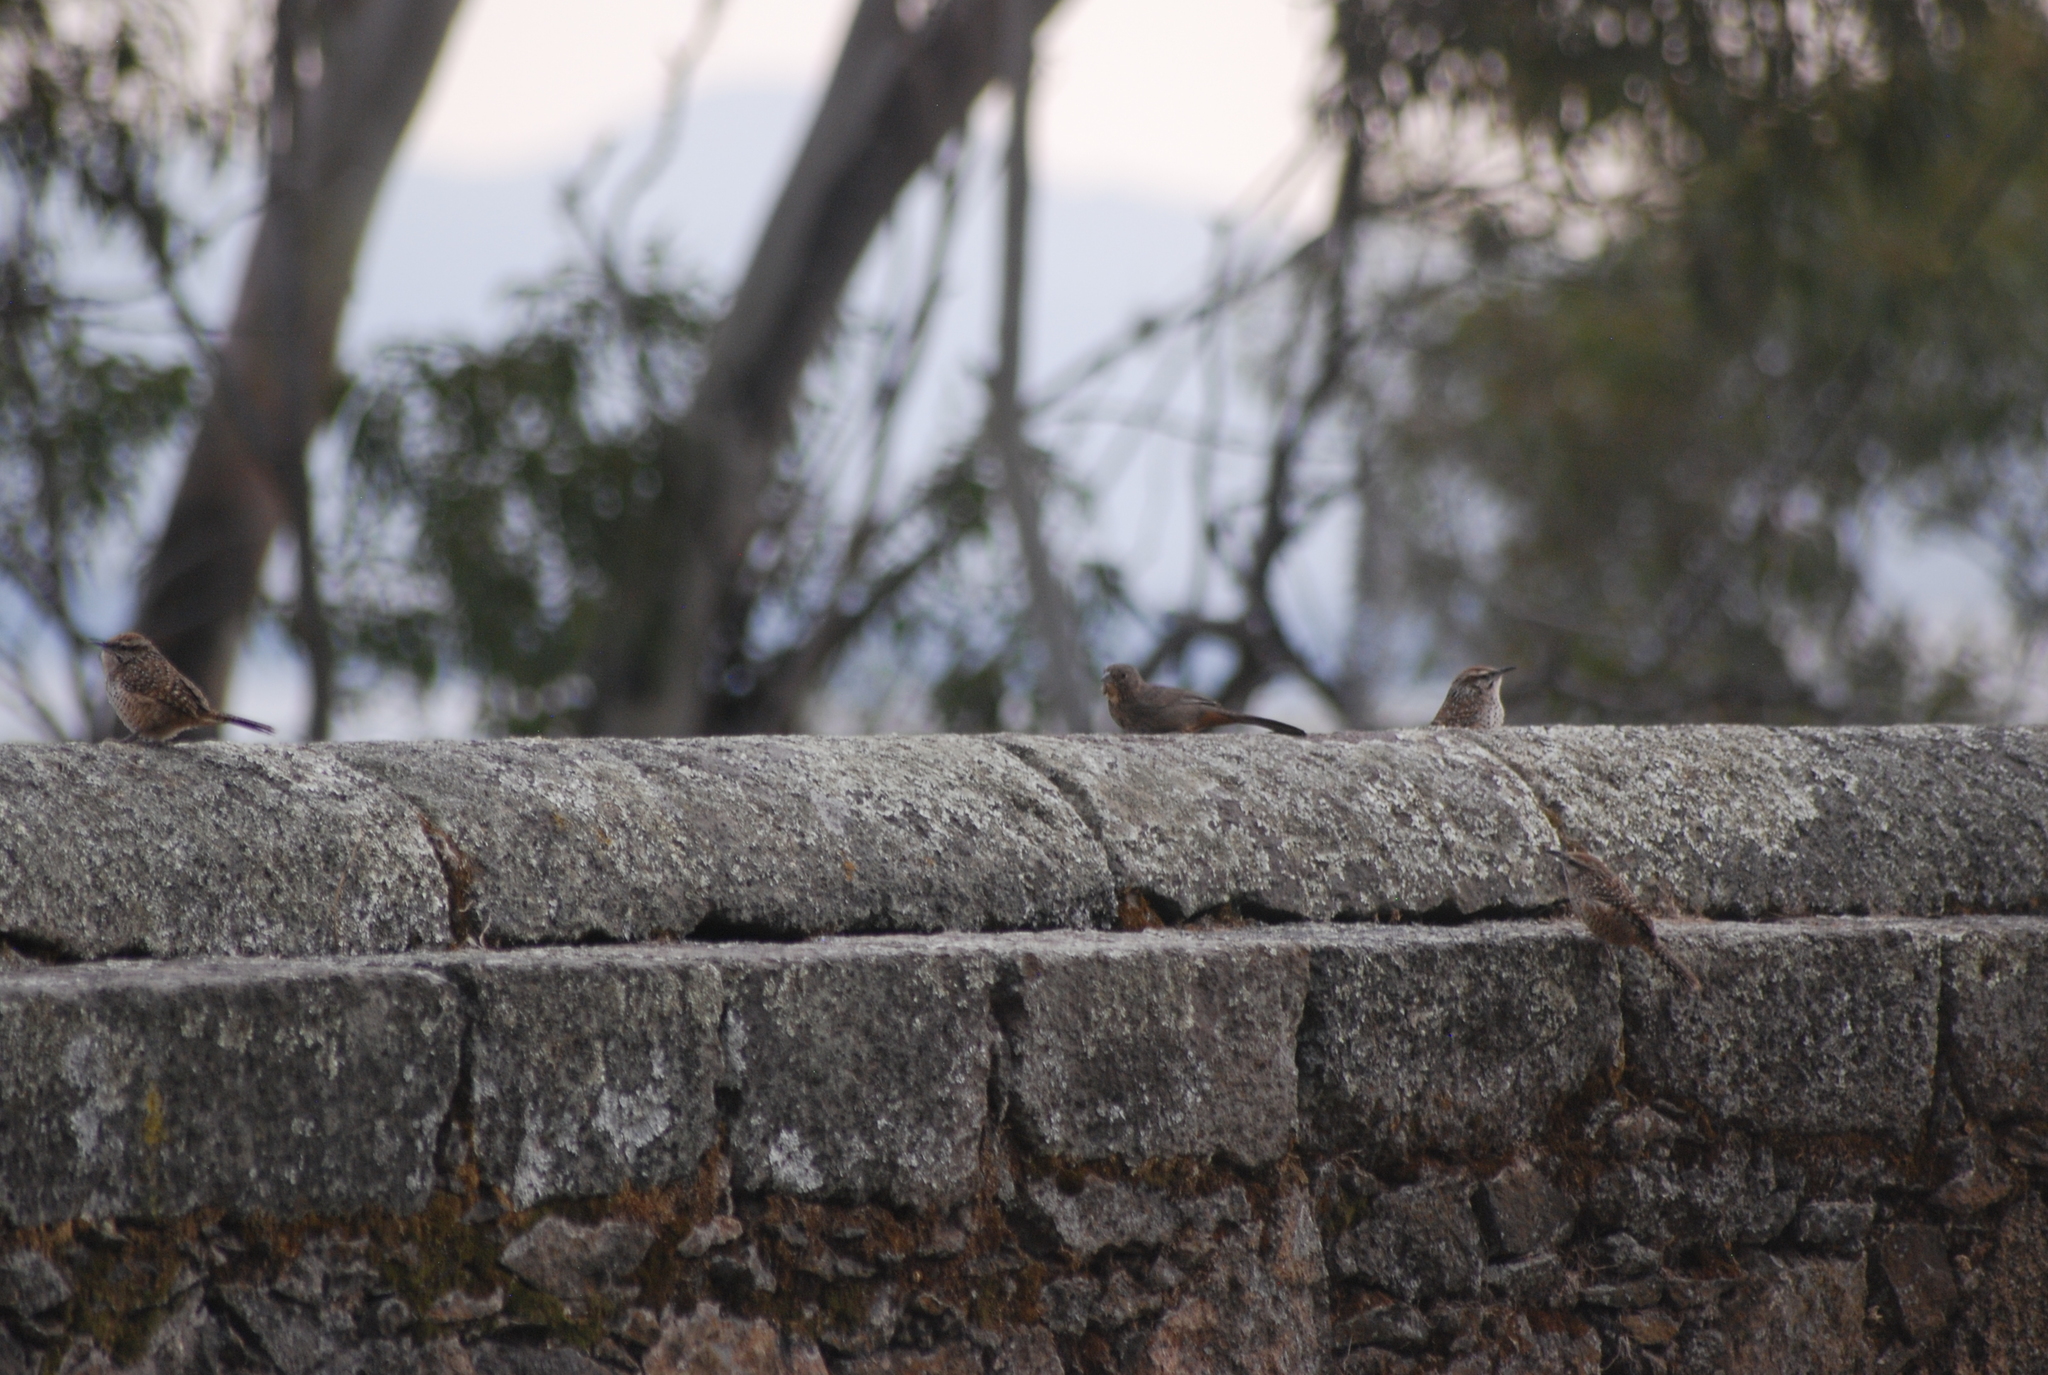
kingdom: Animalia
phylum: Chordata
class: Aves
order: Passeriformes
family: Troglodytidae
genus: Campylorhynchus
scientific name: Campylorhynchus gularis
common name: Spotted wren
